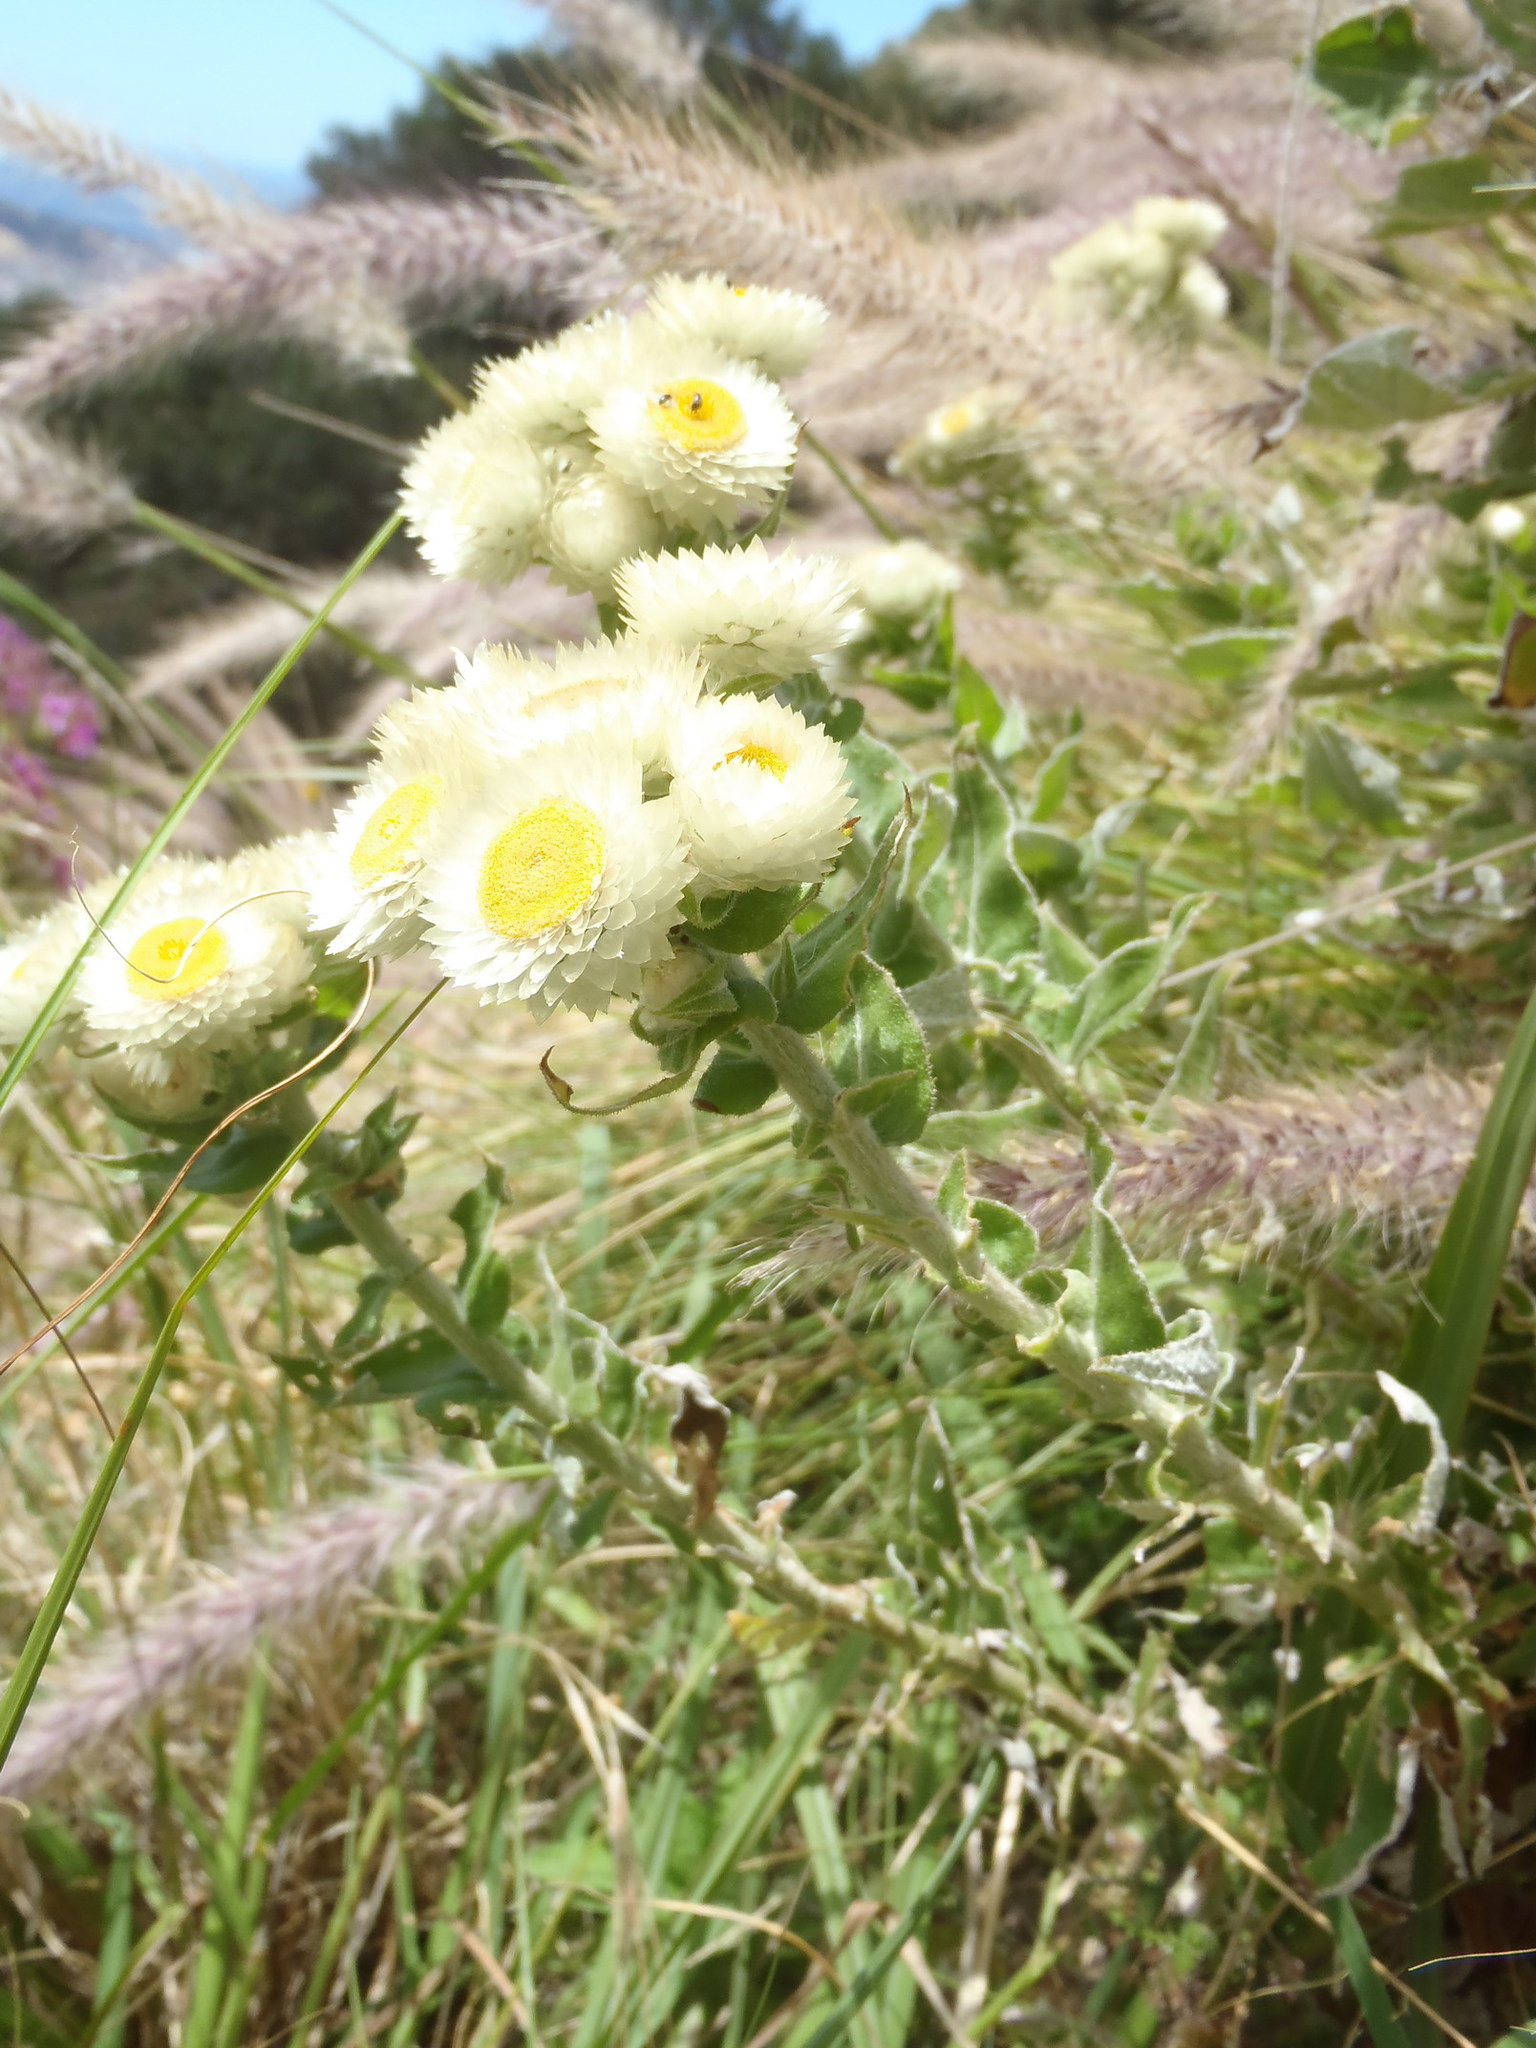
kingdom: Plantae
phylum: Tracheophyta
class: Magnoliopsida
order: Asterales
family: Asteraceae
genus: Helichrysum
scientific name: Helichrysum foetidum
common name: Stinking everlasting
